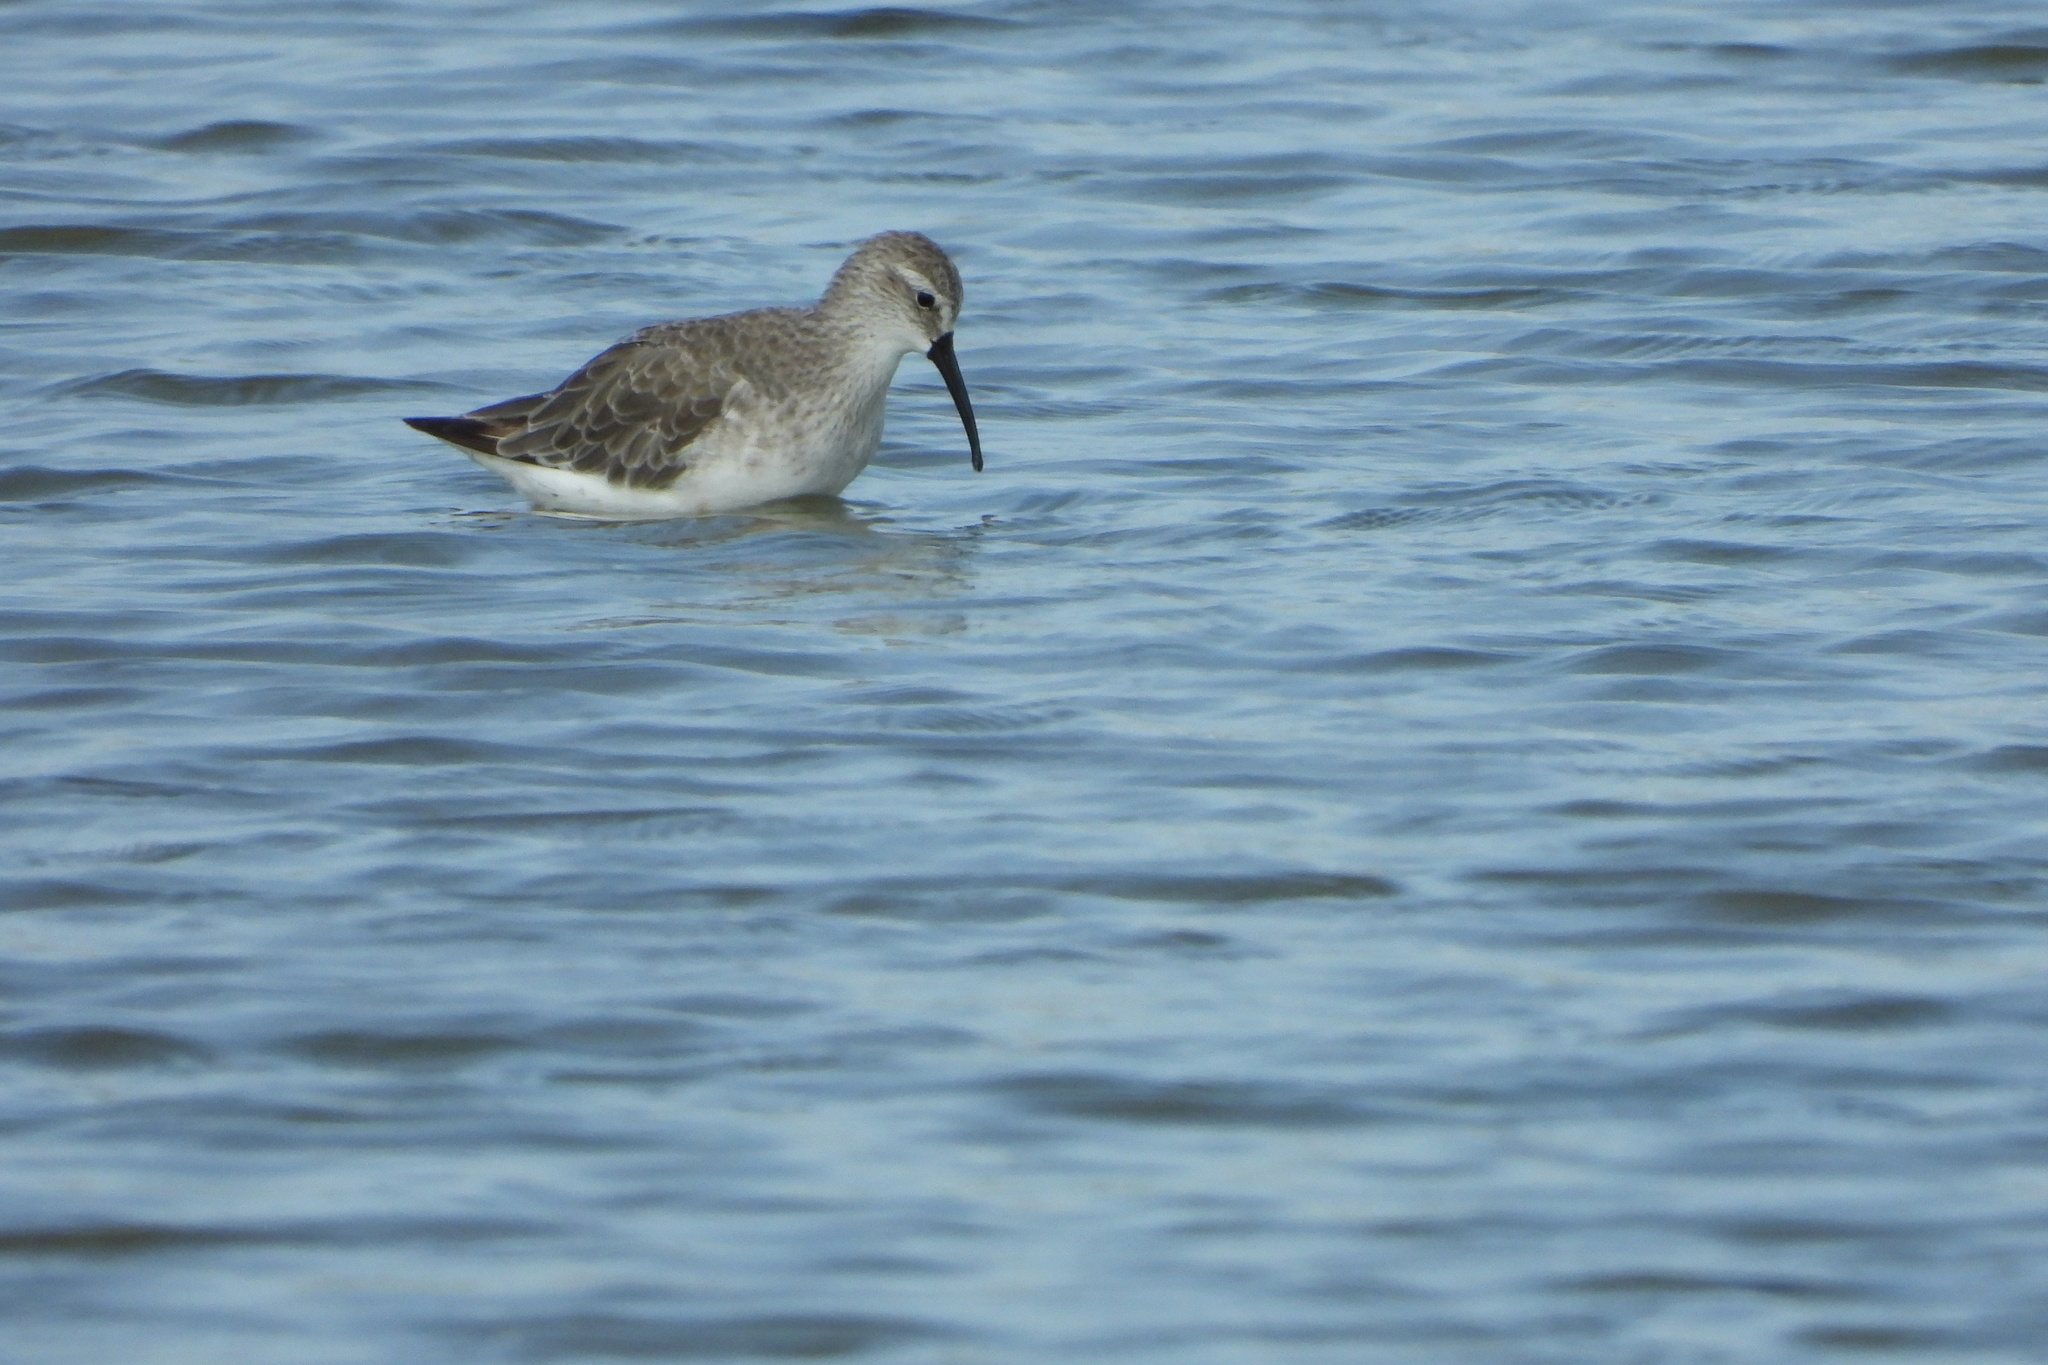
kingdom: Animalia
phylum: Chordata
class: Aves
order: Charadriiformes
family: Scolopacidae
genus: Calidris
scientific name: Calidris ferruginea
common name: Curlew sandpiper
